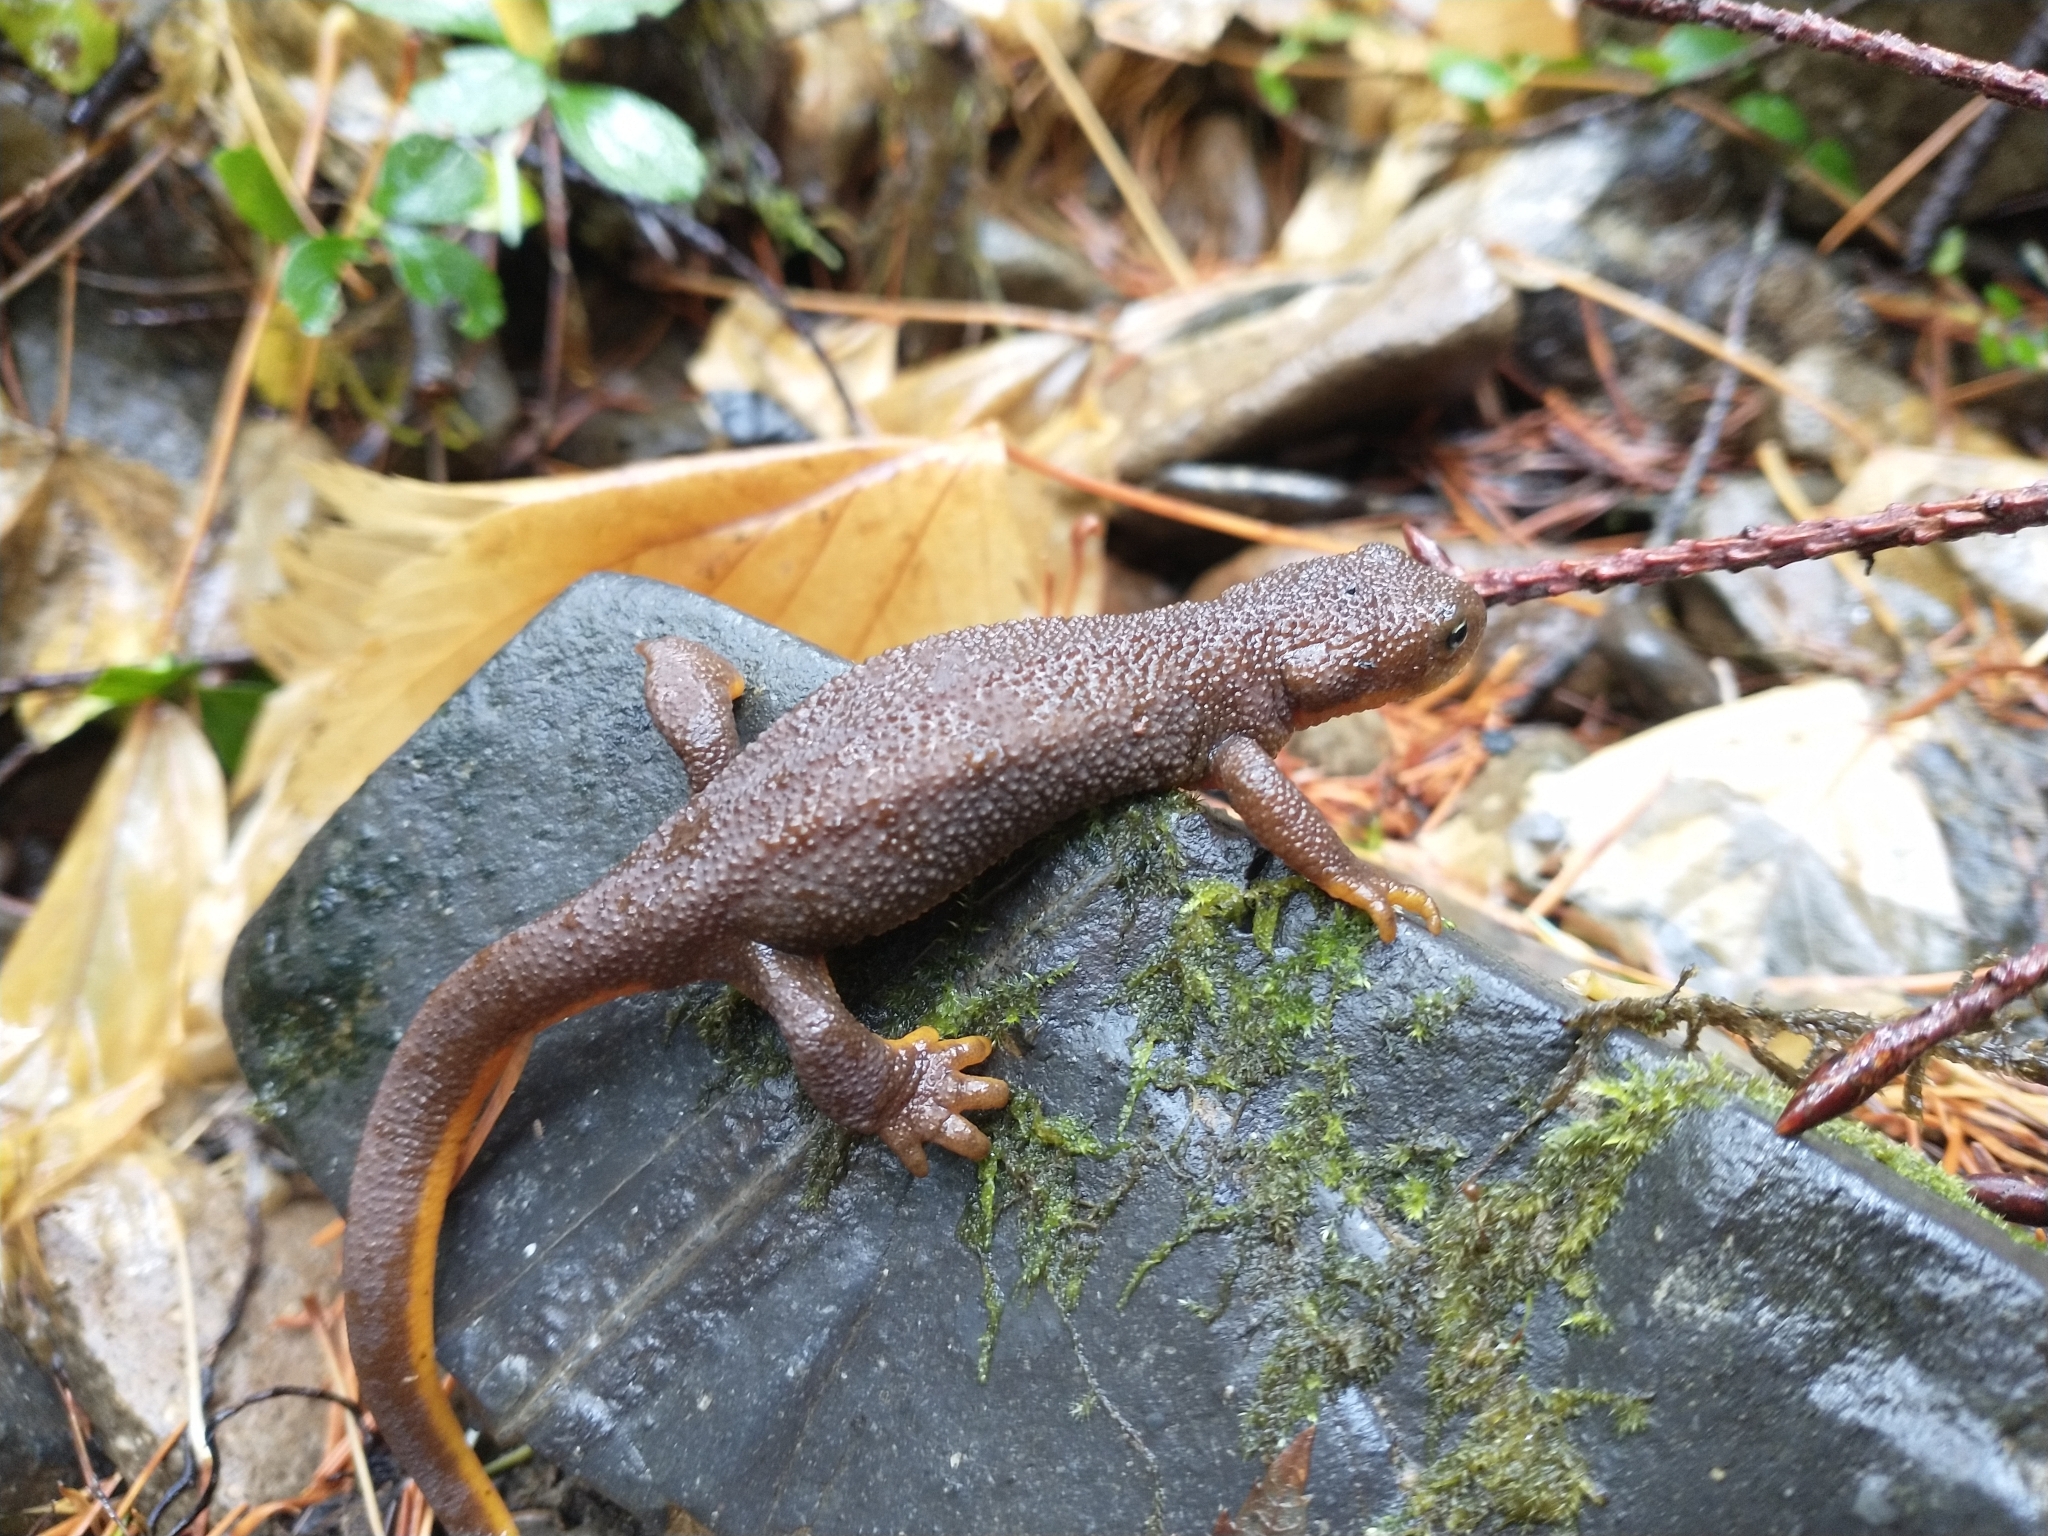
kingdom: Animalia
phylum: Chordata
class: Amphibia
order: Caudata
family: Salamandridae
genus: Taricha
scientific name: Taricha granulosa
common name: Roughskin newt
